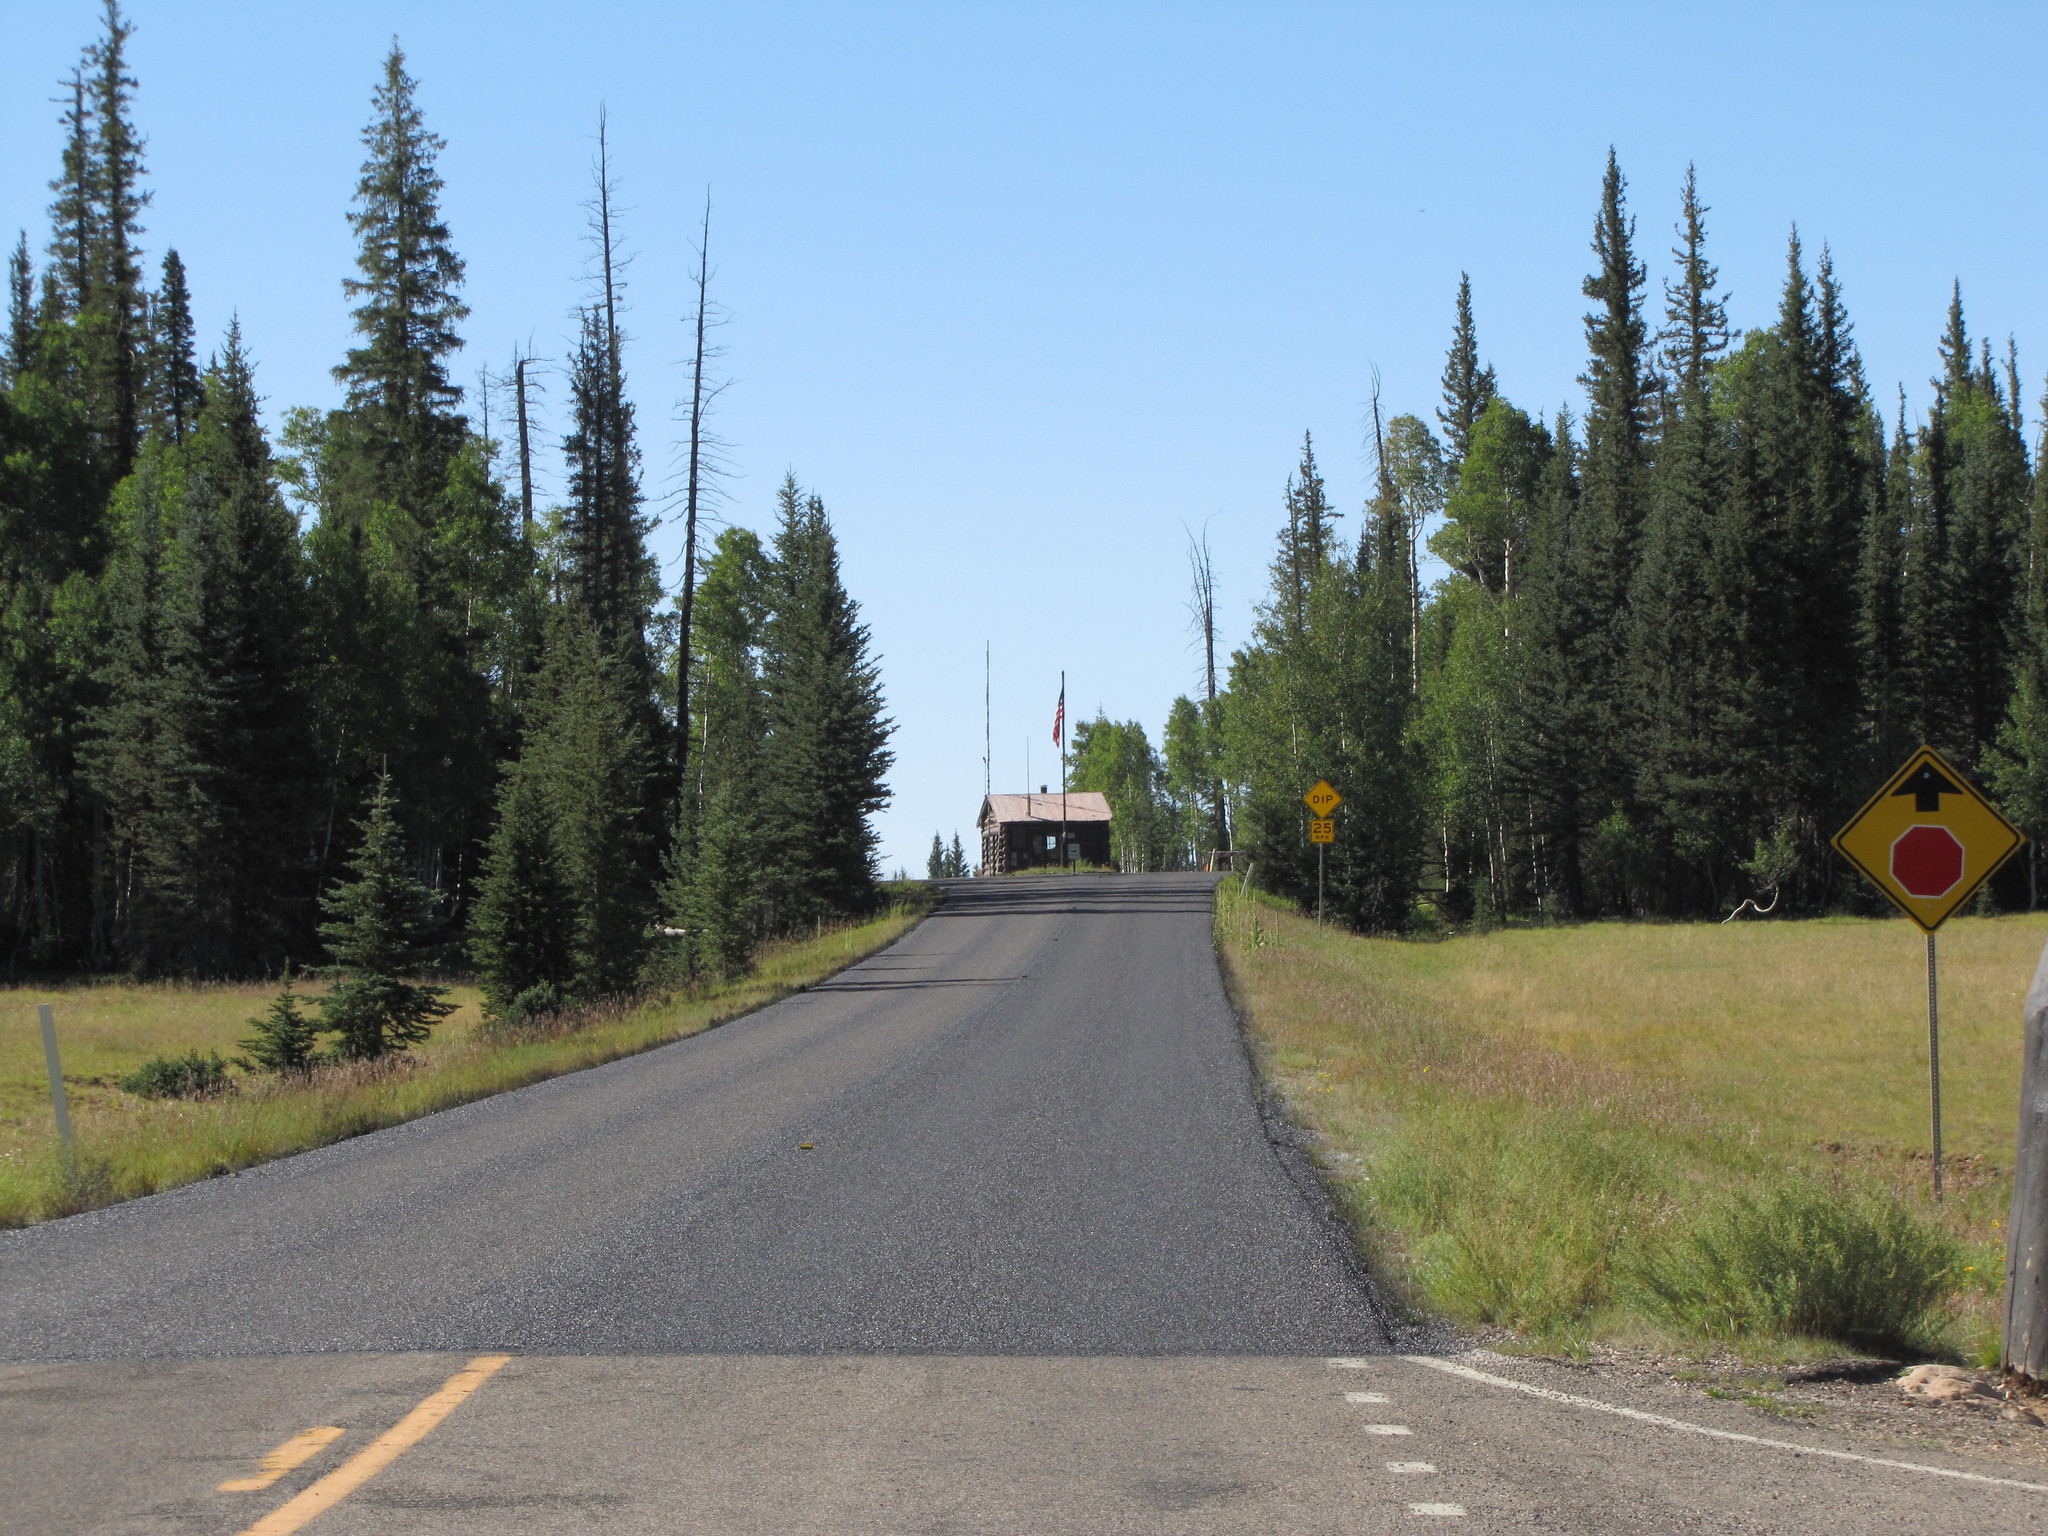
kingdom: Plantae
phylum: Tracheophyta
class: Pinopsida
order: Pinales
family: Pinaceae
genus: Picea
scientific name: Picea engelmannii
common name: Engelmann spruce
